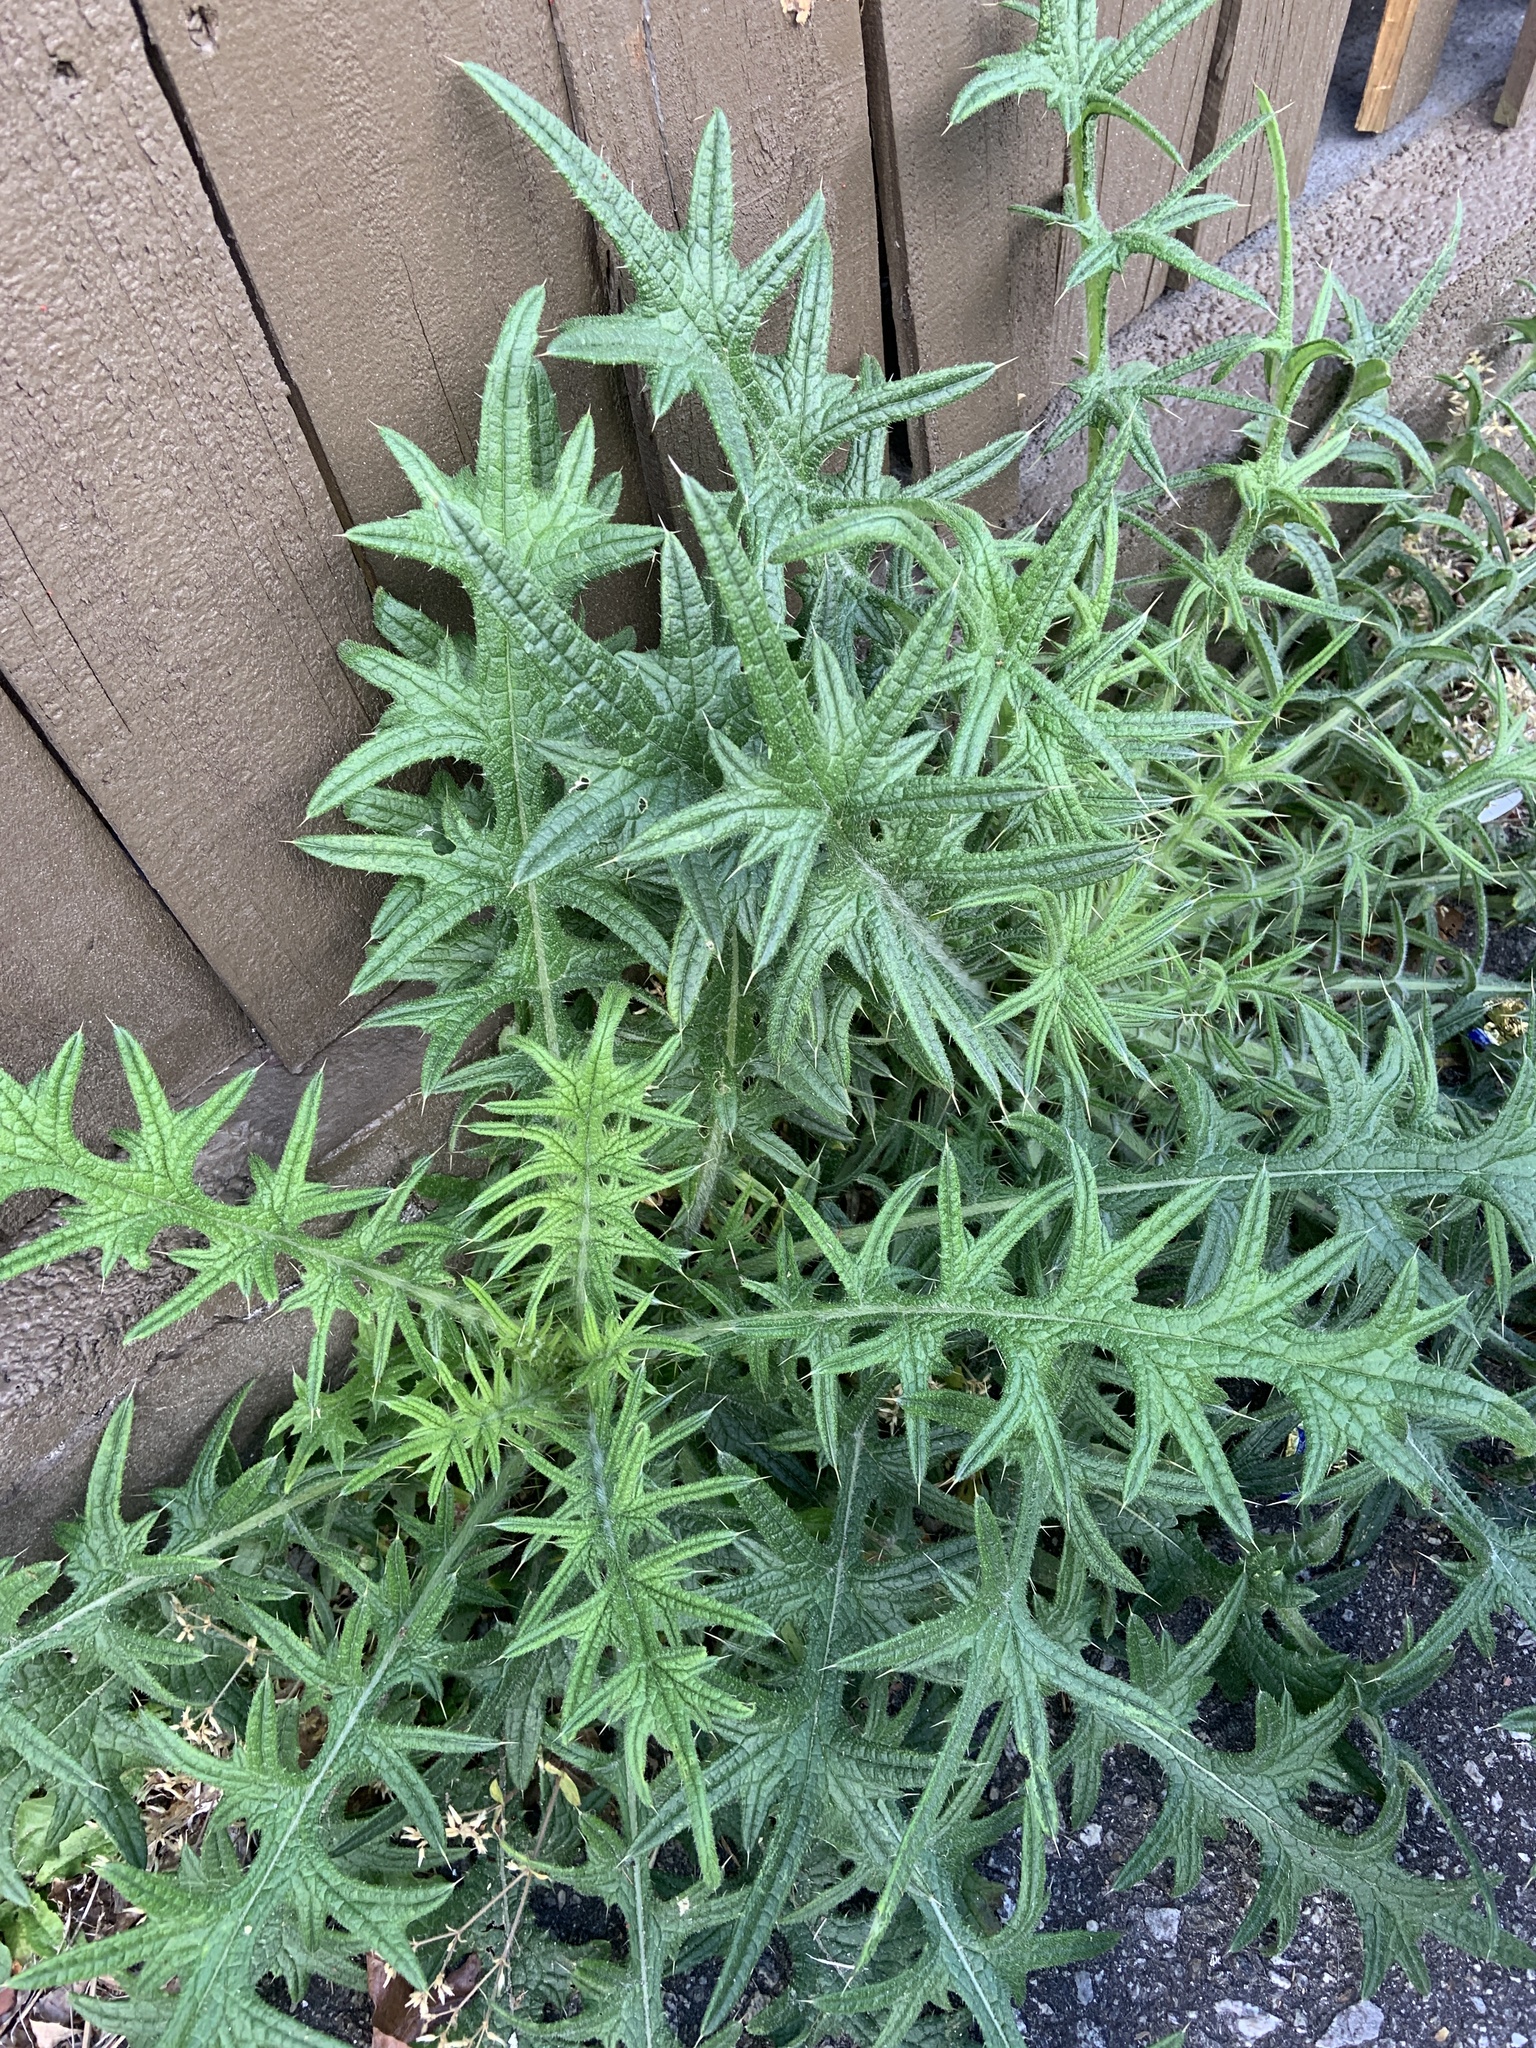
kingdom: Plantae
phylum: Tracheophyta
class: Magnoliopsida
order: Asterales
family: Asteraceae
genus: Cirsium
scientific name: Cirsium vulgare
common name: Bull thistle
